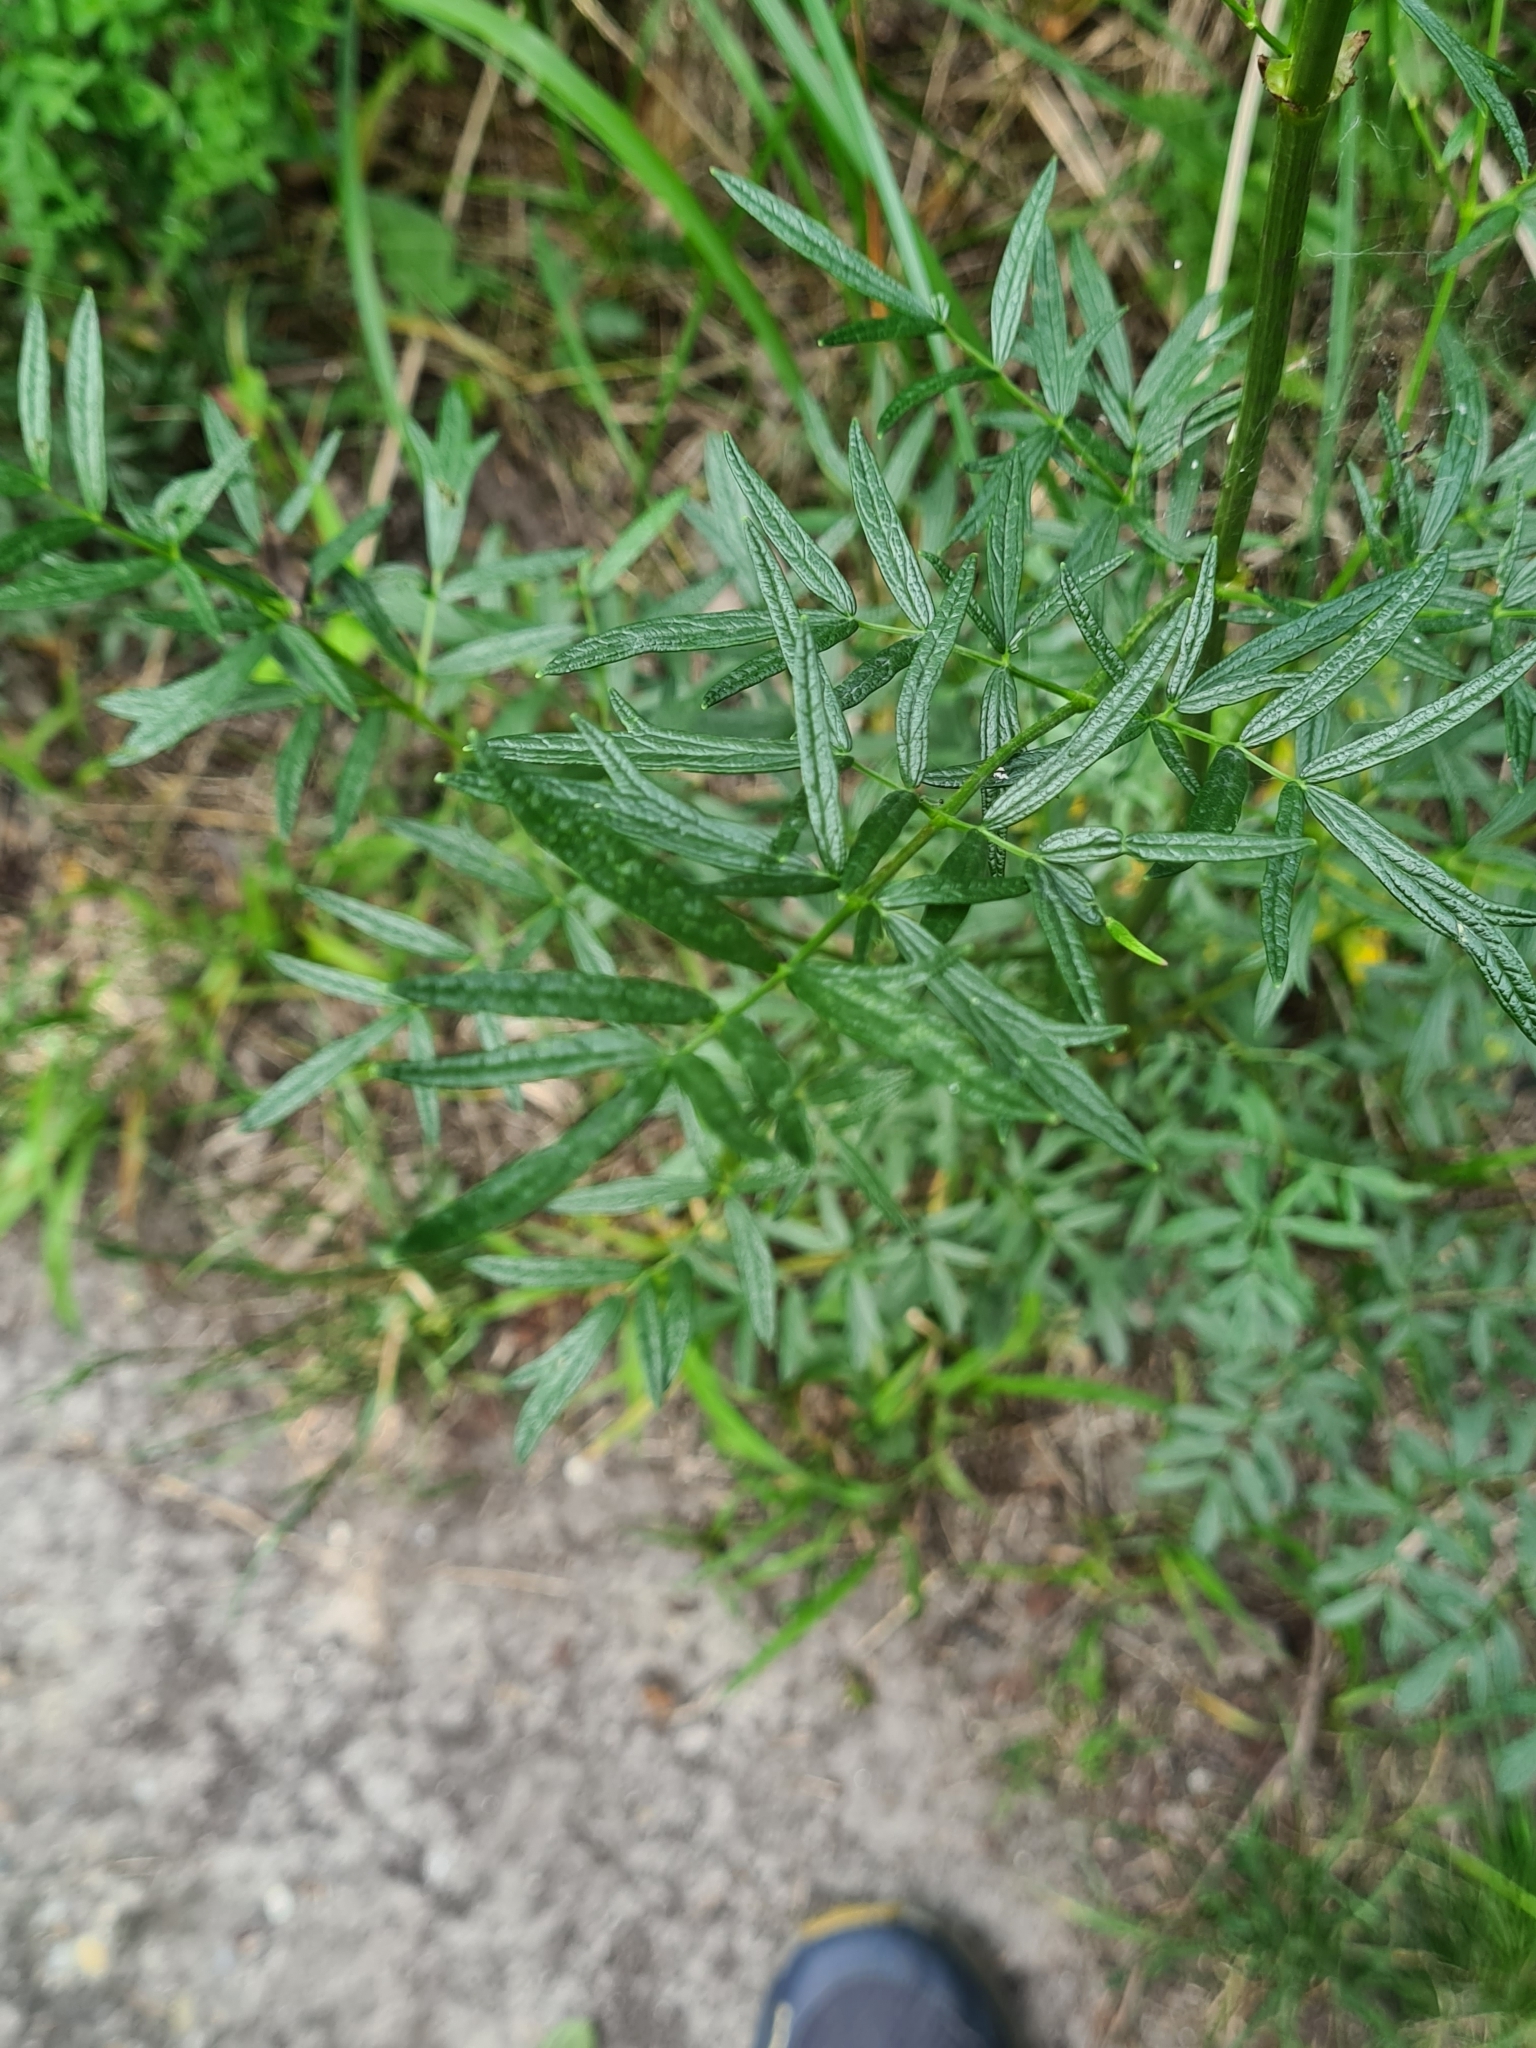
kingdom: Plantae
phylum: Tracheophyta
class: Magnoliopsida
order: Ranunculales
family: Ranunculaceae
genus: Thalictrum
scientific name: Thalictrum lucidum
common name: Shining meadow-rue
